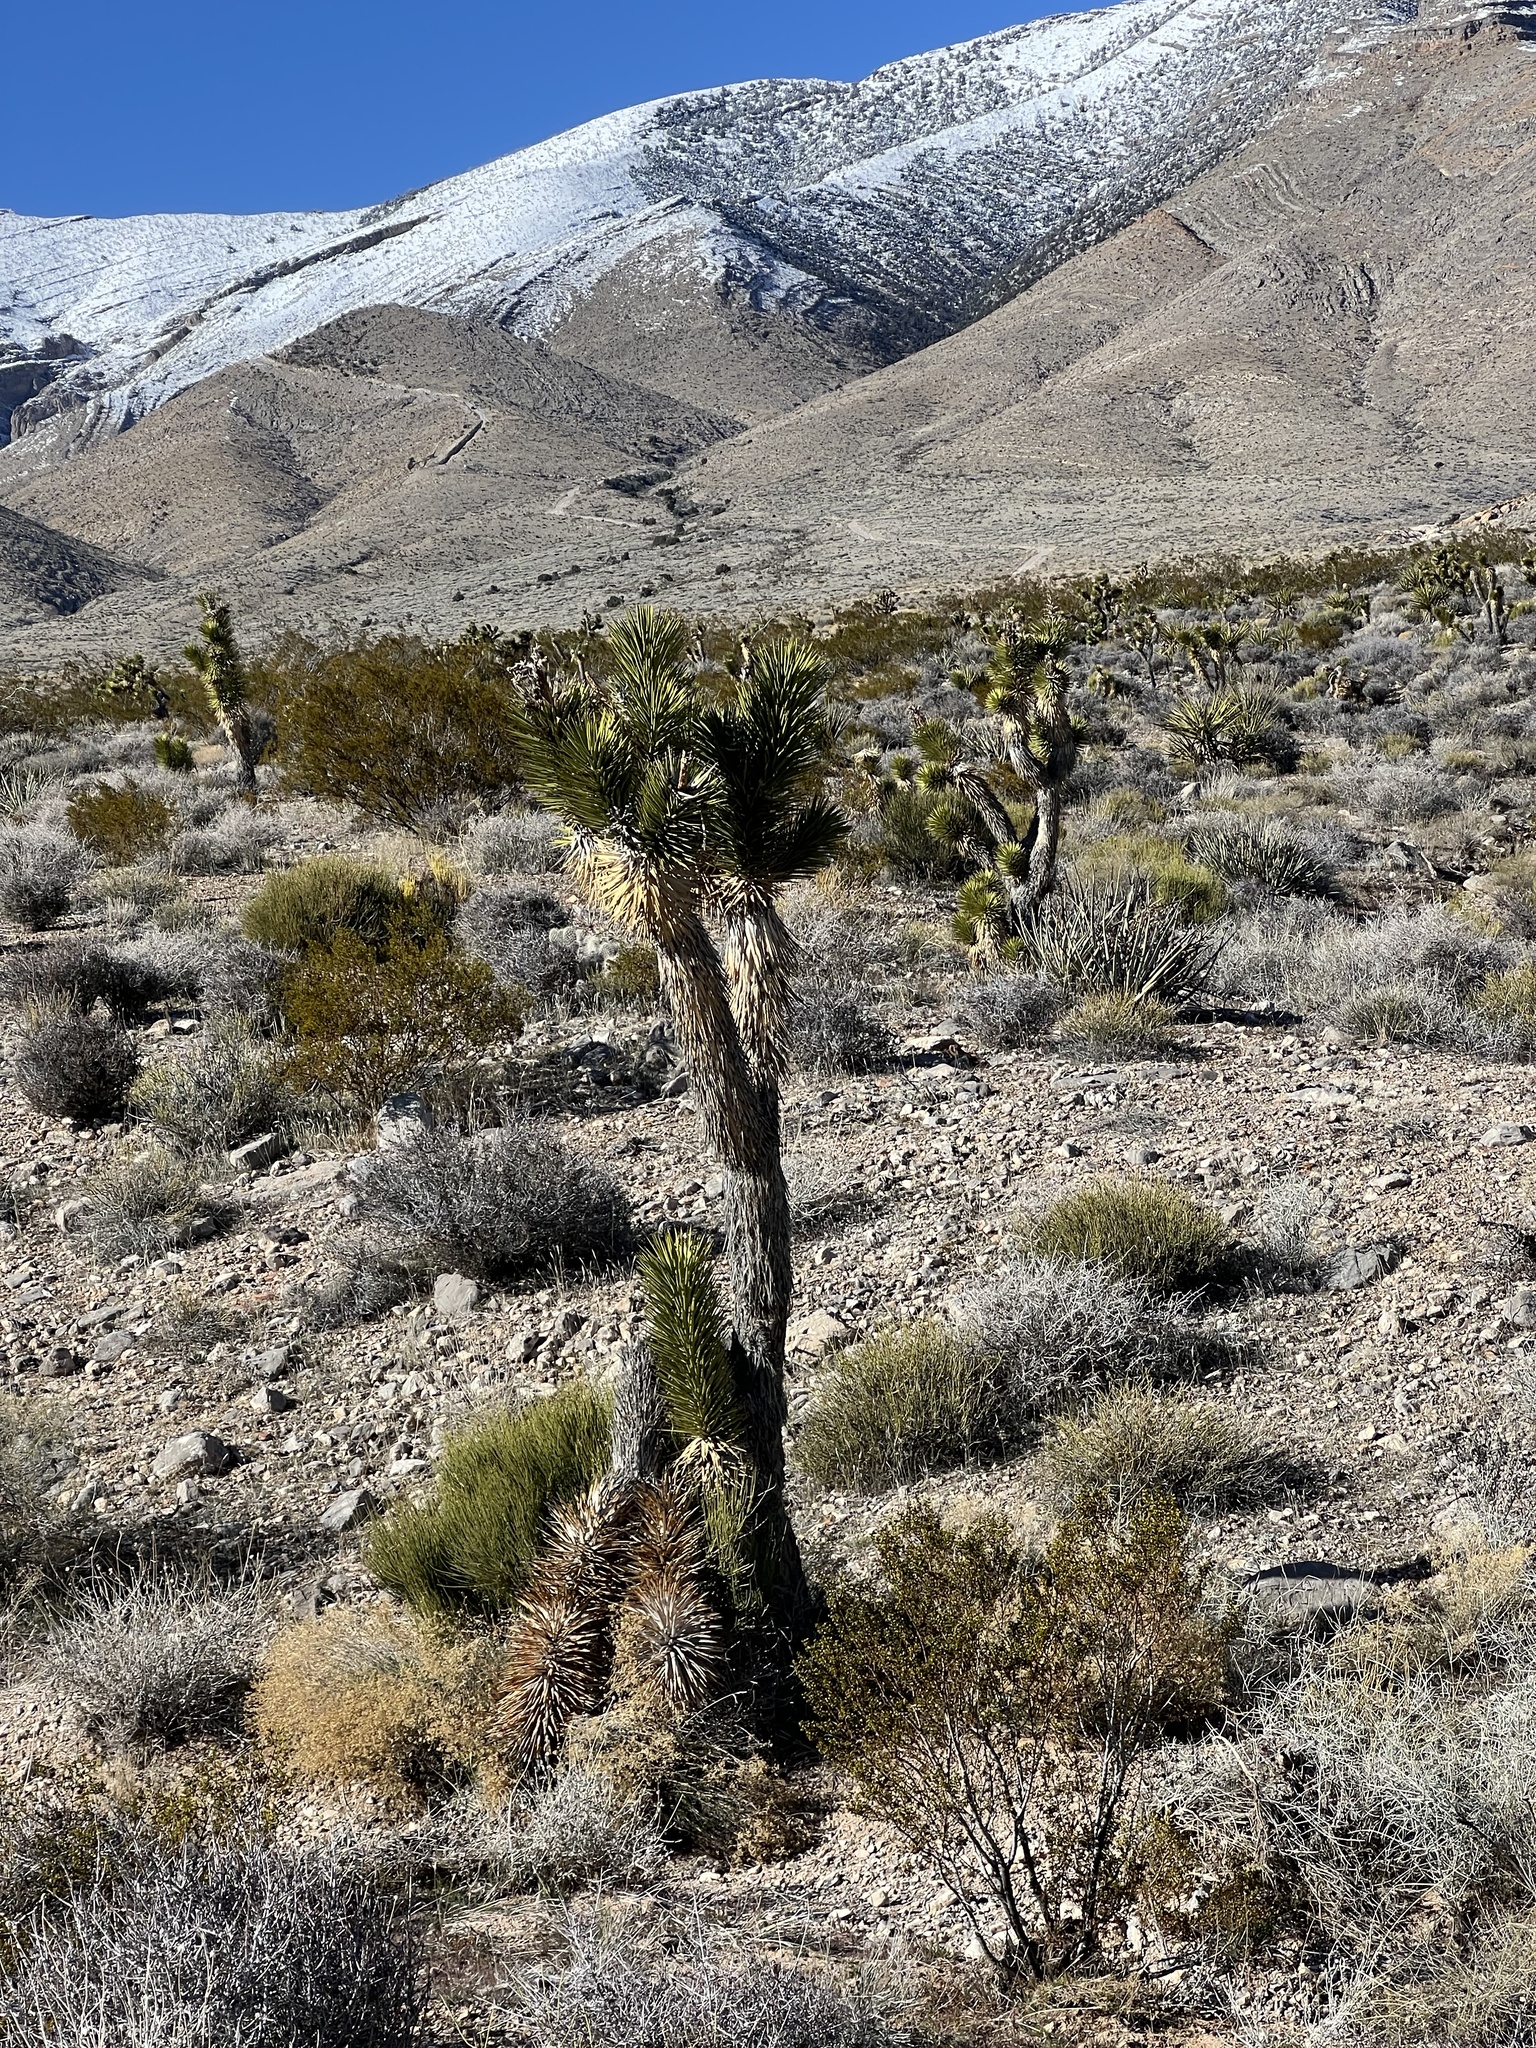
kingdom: Plantae
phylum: Tracheophyta
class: Liliopsida
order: Asparagales
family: Asparagaceae
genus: Yucca
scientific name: Yucca brevifolia
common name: Joshua tree
